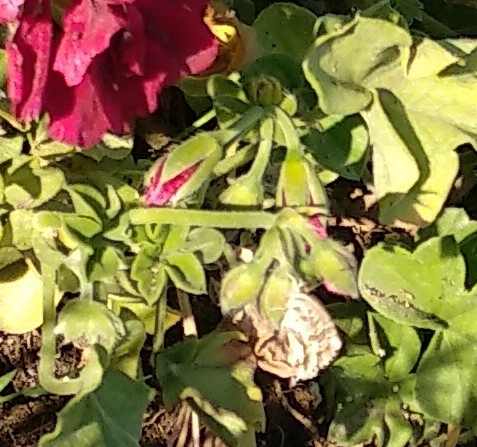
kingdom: Animalia
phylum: Arthropoda
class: Insecta
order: Lepidoptera
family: Lycaenidae
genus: Cacyreus
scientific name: Cacyreus marshalli
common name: Geranium bronze
